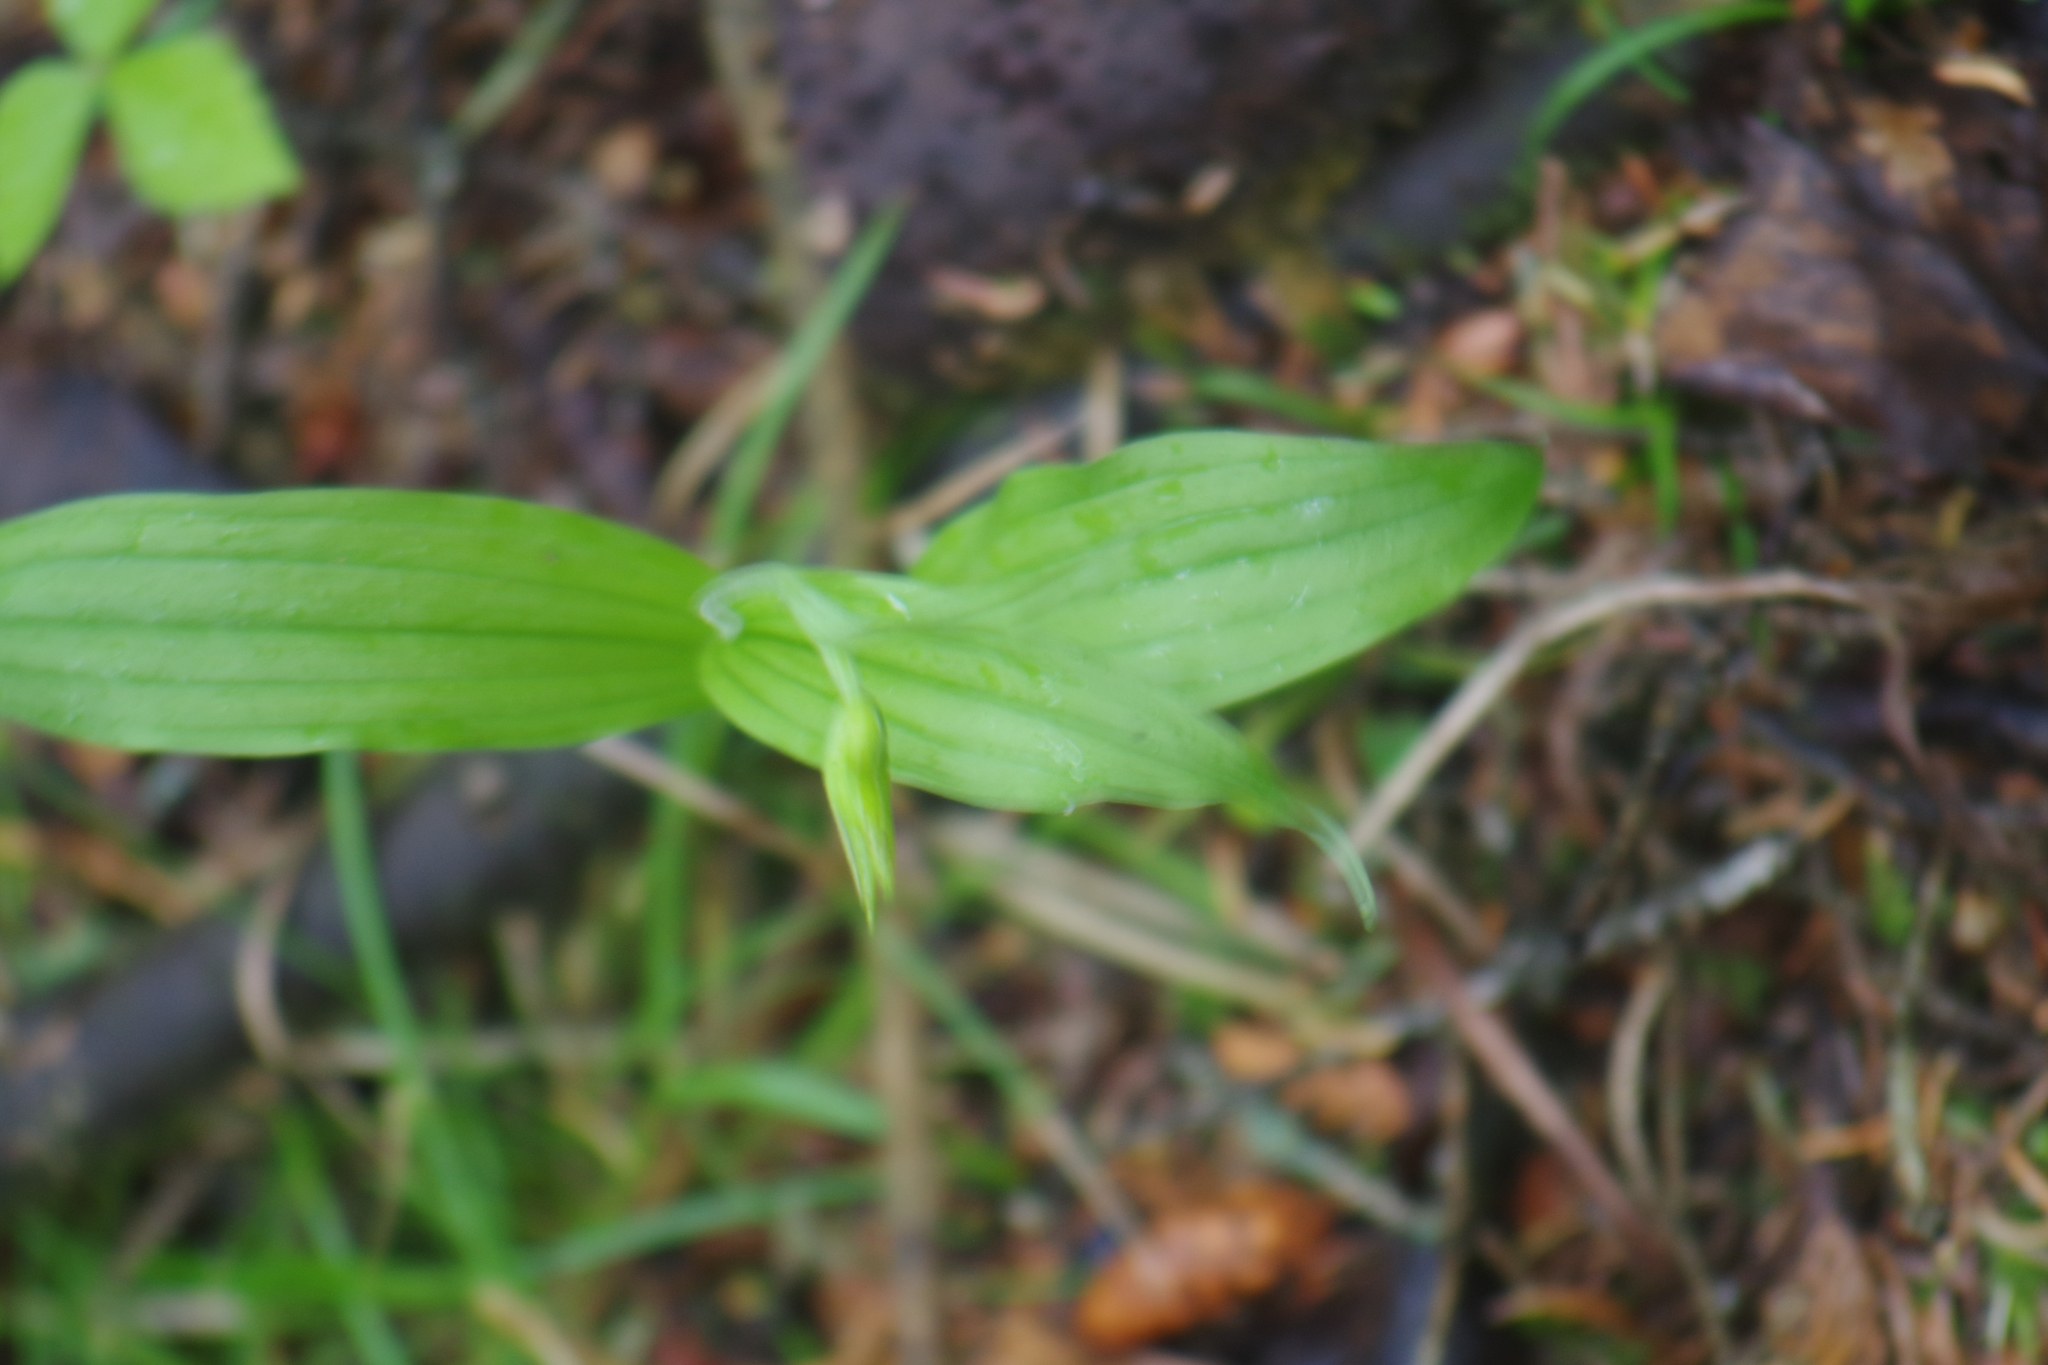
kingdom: Plantae
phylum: Tracheophyta
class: Liliopsida
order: Asparagales
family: Orchidaceae
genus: Cypripedium
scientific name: Cypripedium arietinum
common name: Ram's-head
